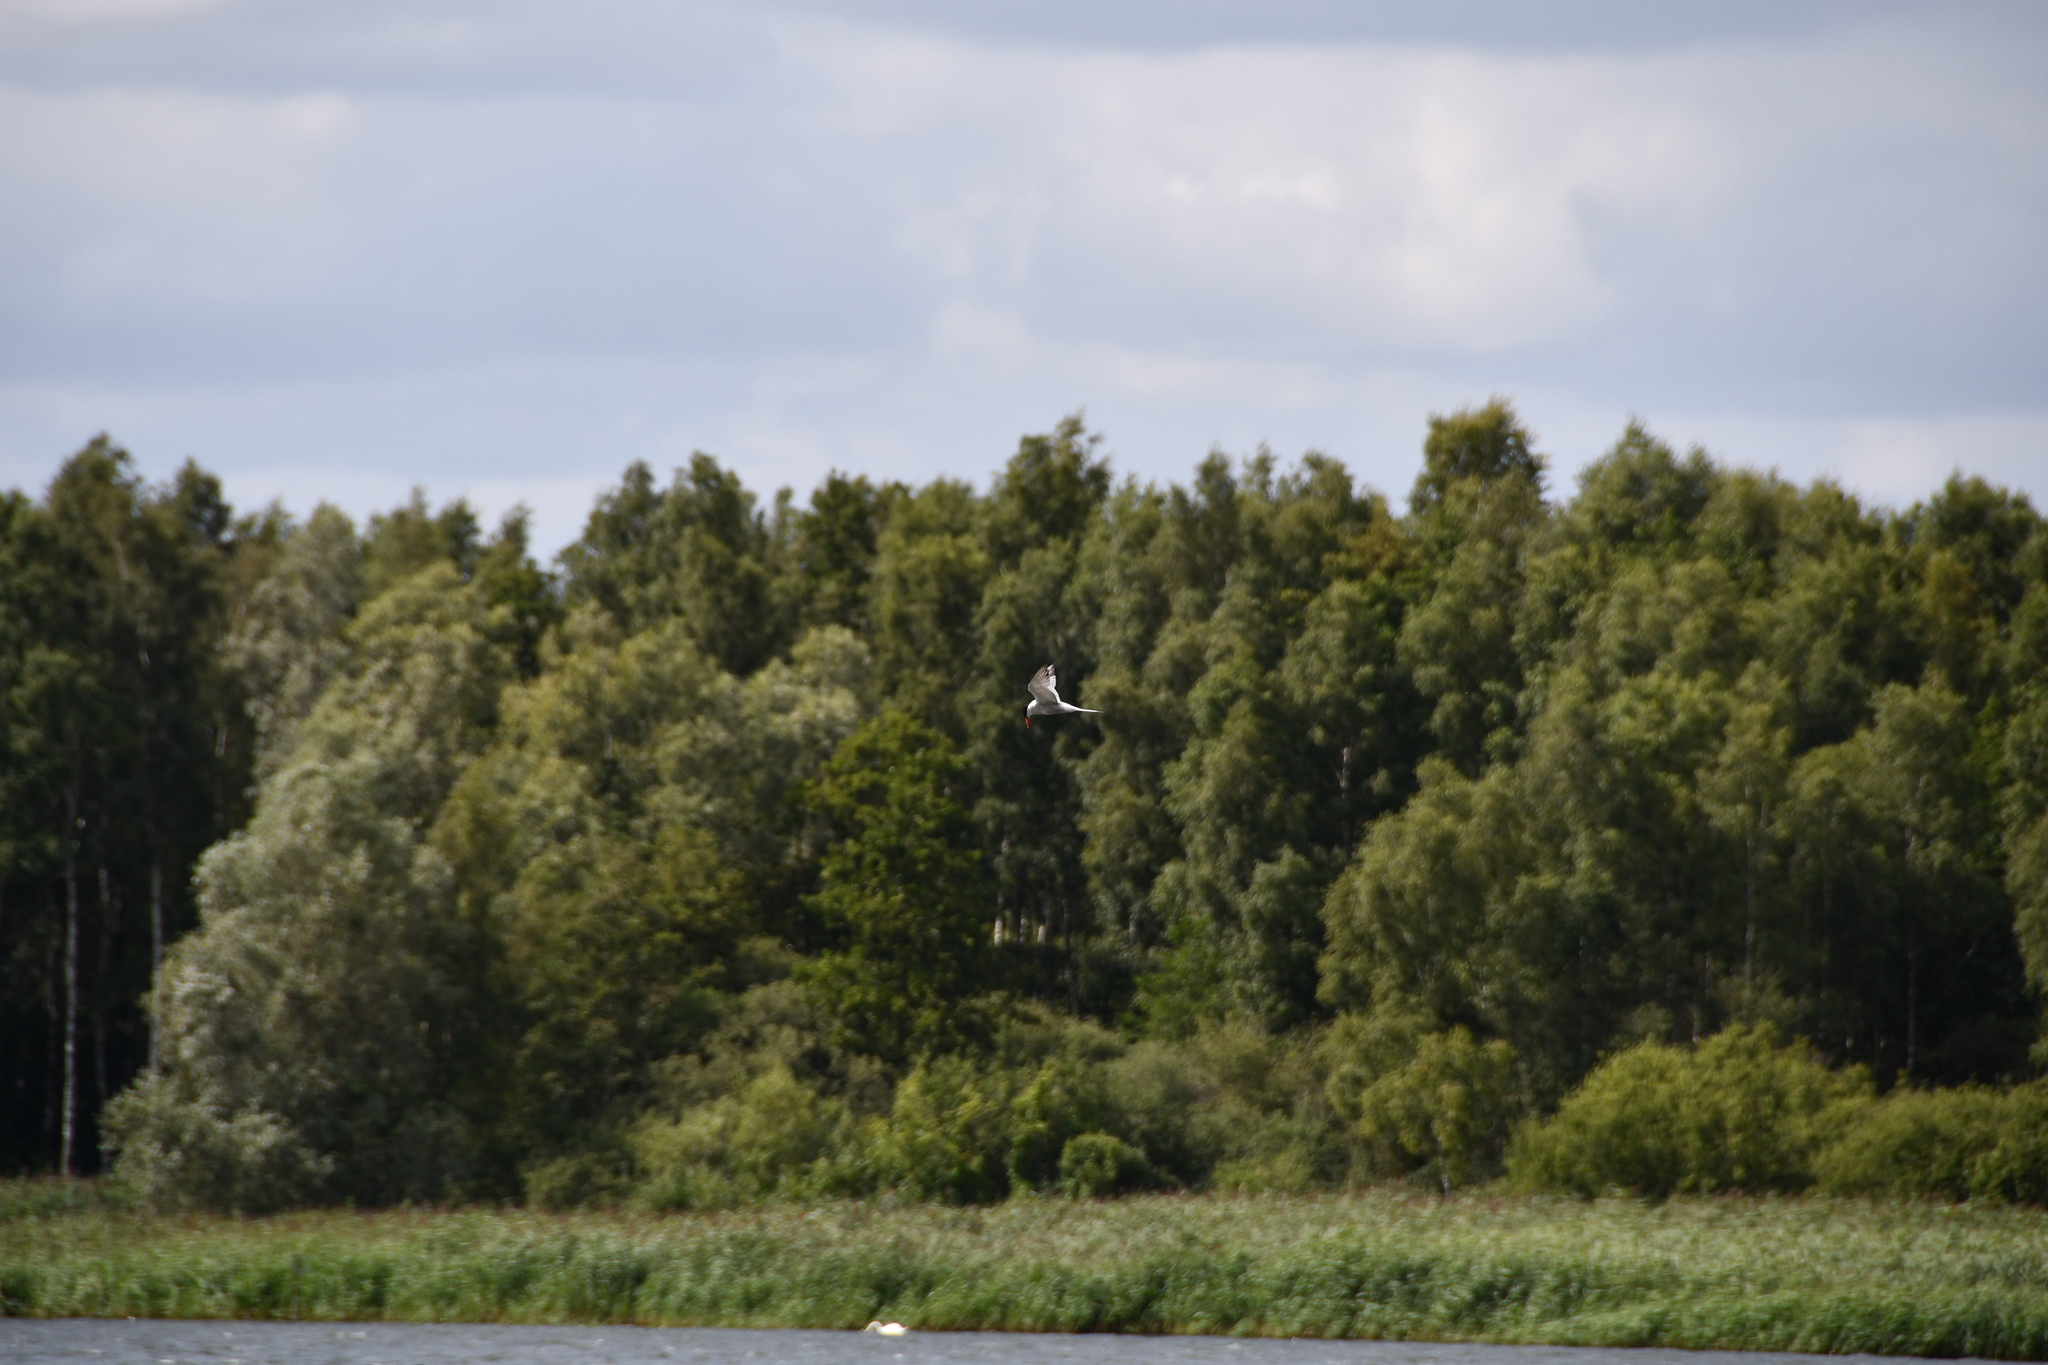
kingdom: Animalia
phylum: Chordata
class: Aves
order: Charadriiformes
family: Laridae
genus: Sterna
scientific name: Sterna hirundo
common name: Common tern
